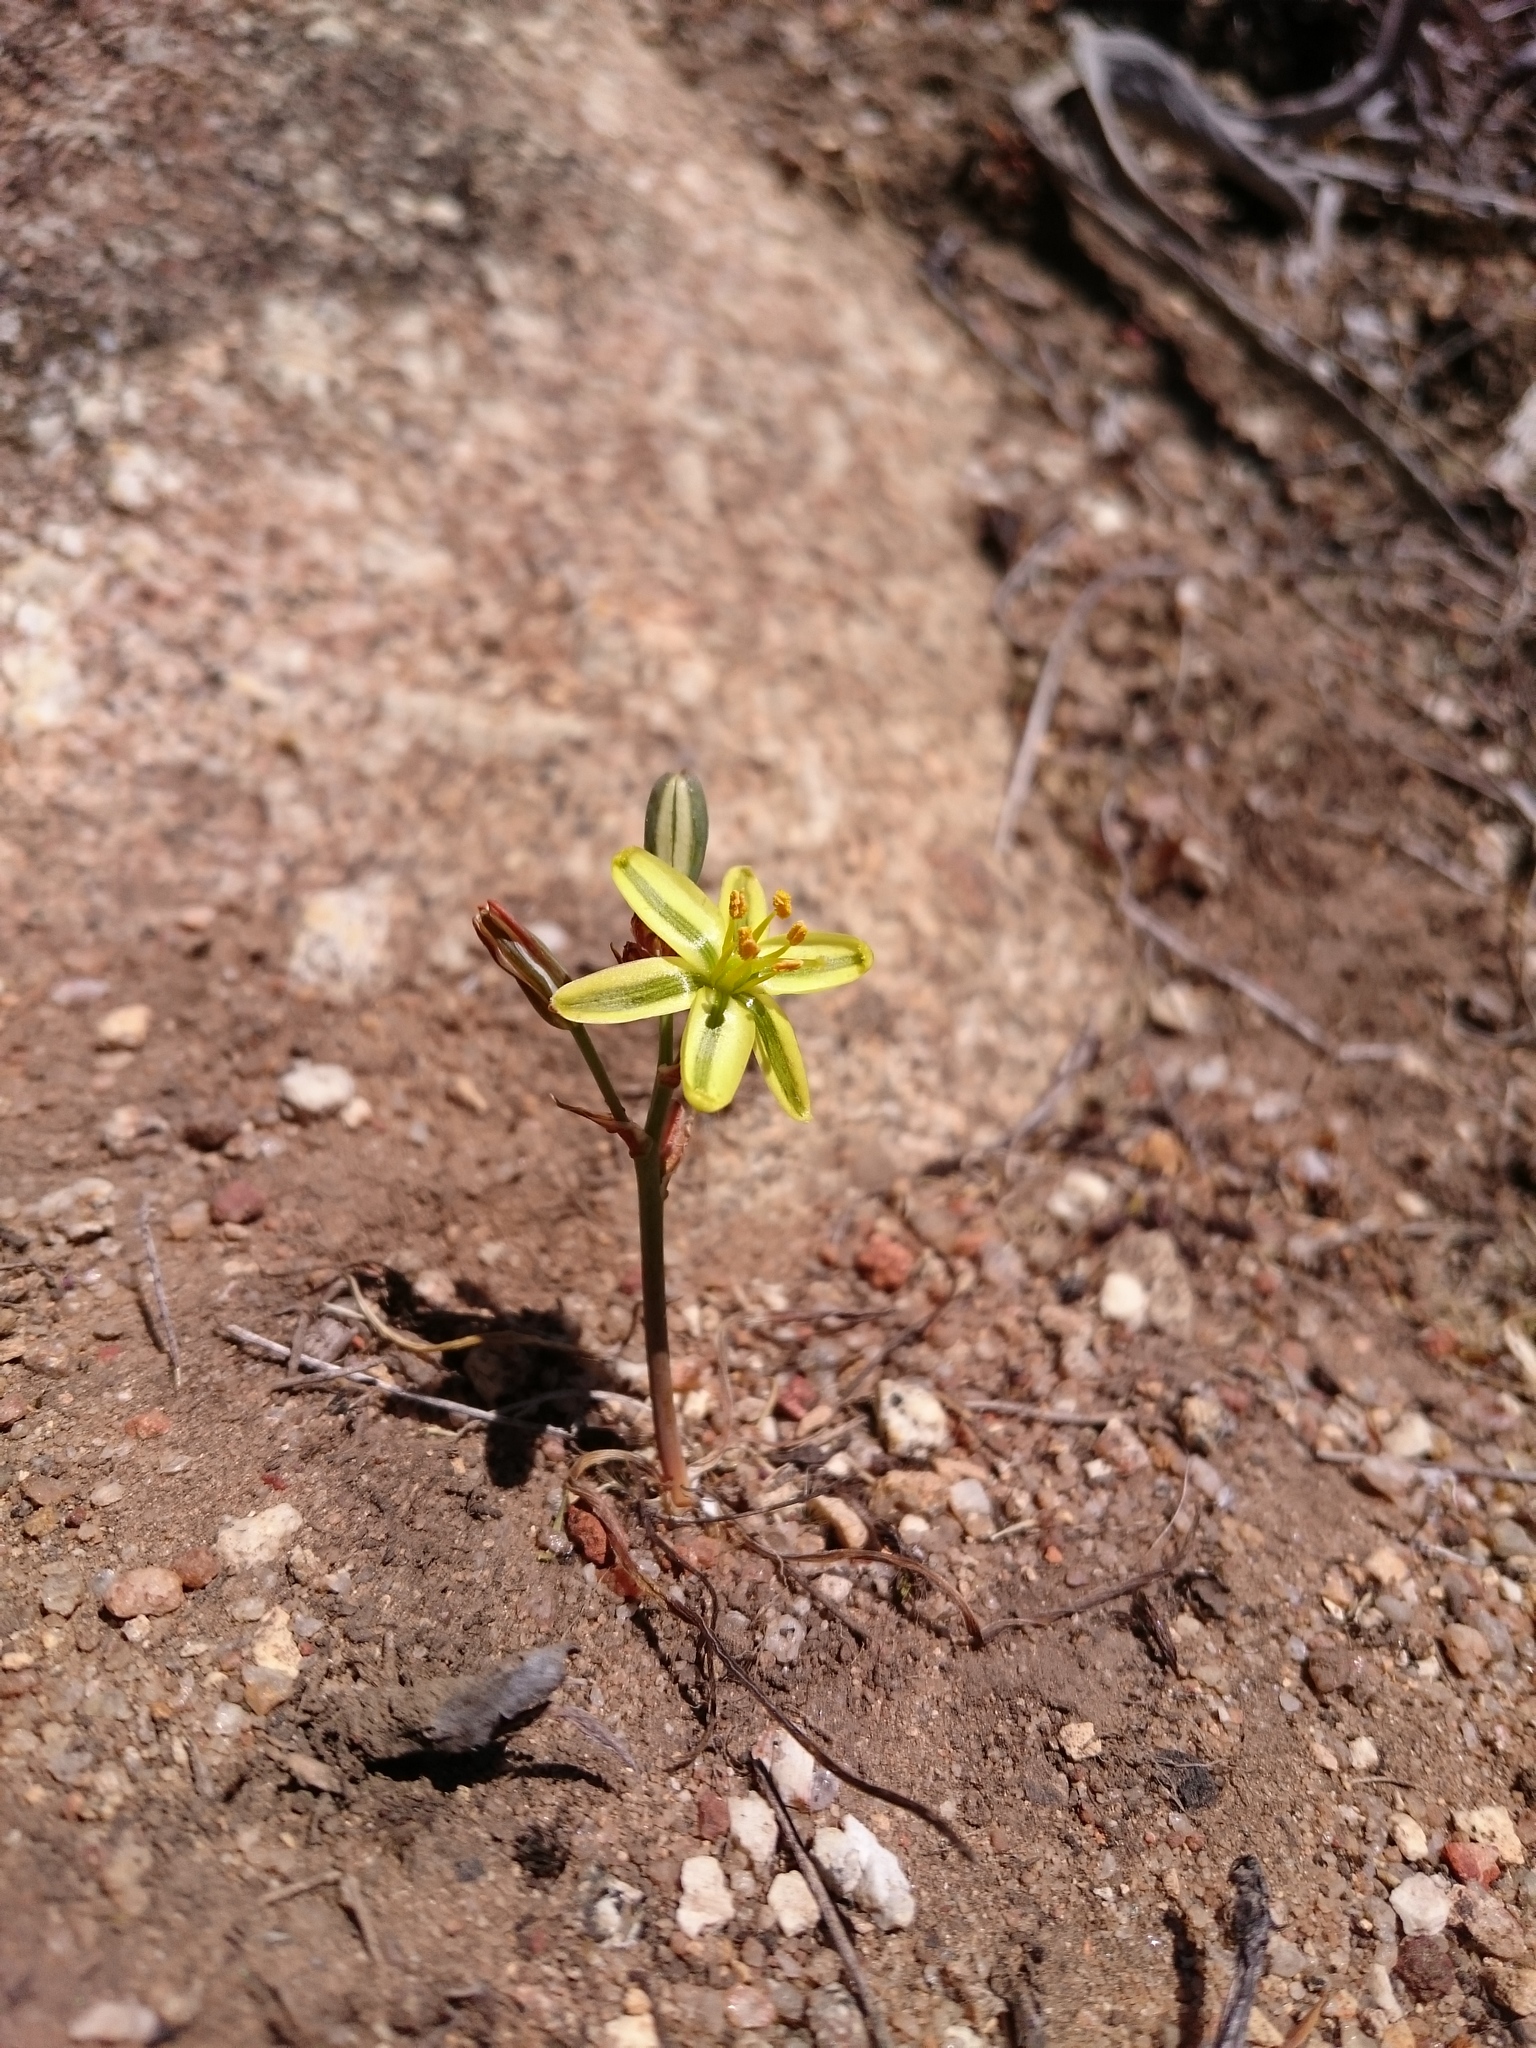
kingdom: Plantae
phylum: Tracheophyta
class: Liliopsida
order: Asparagales
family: Asparagaceae
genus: Albuca
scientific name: Albuca suaveolens
